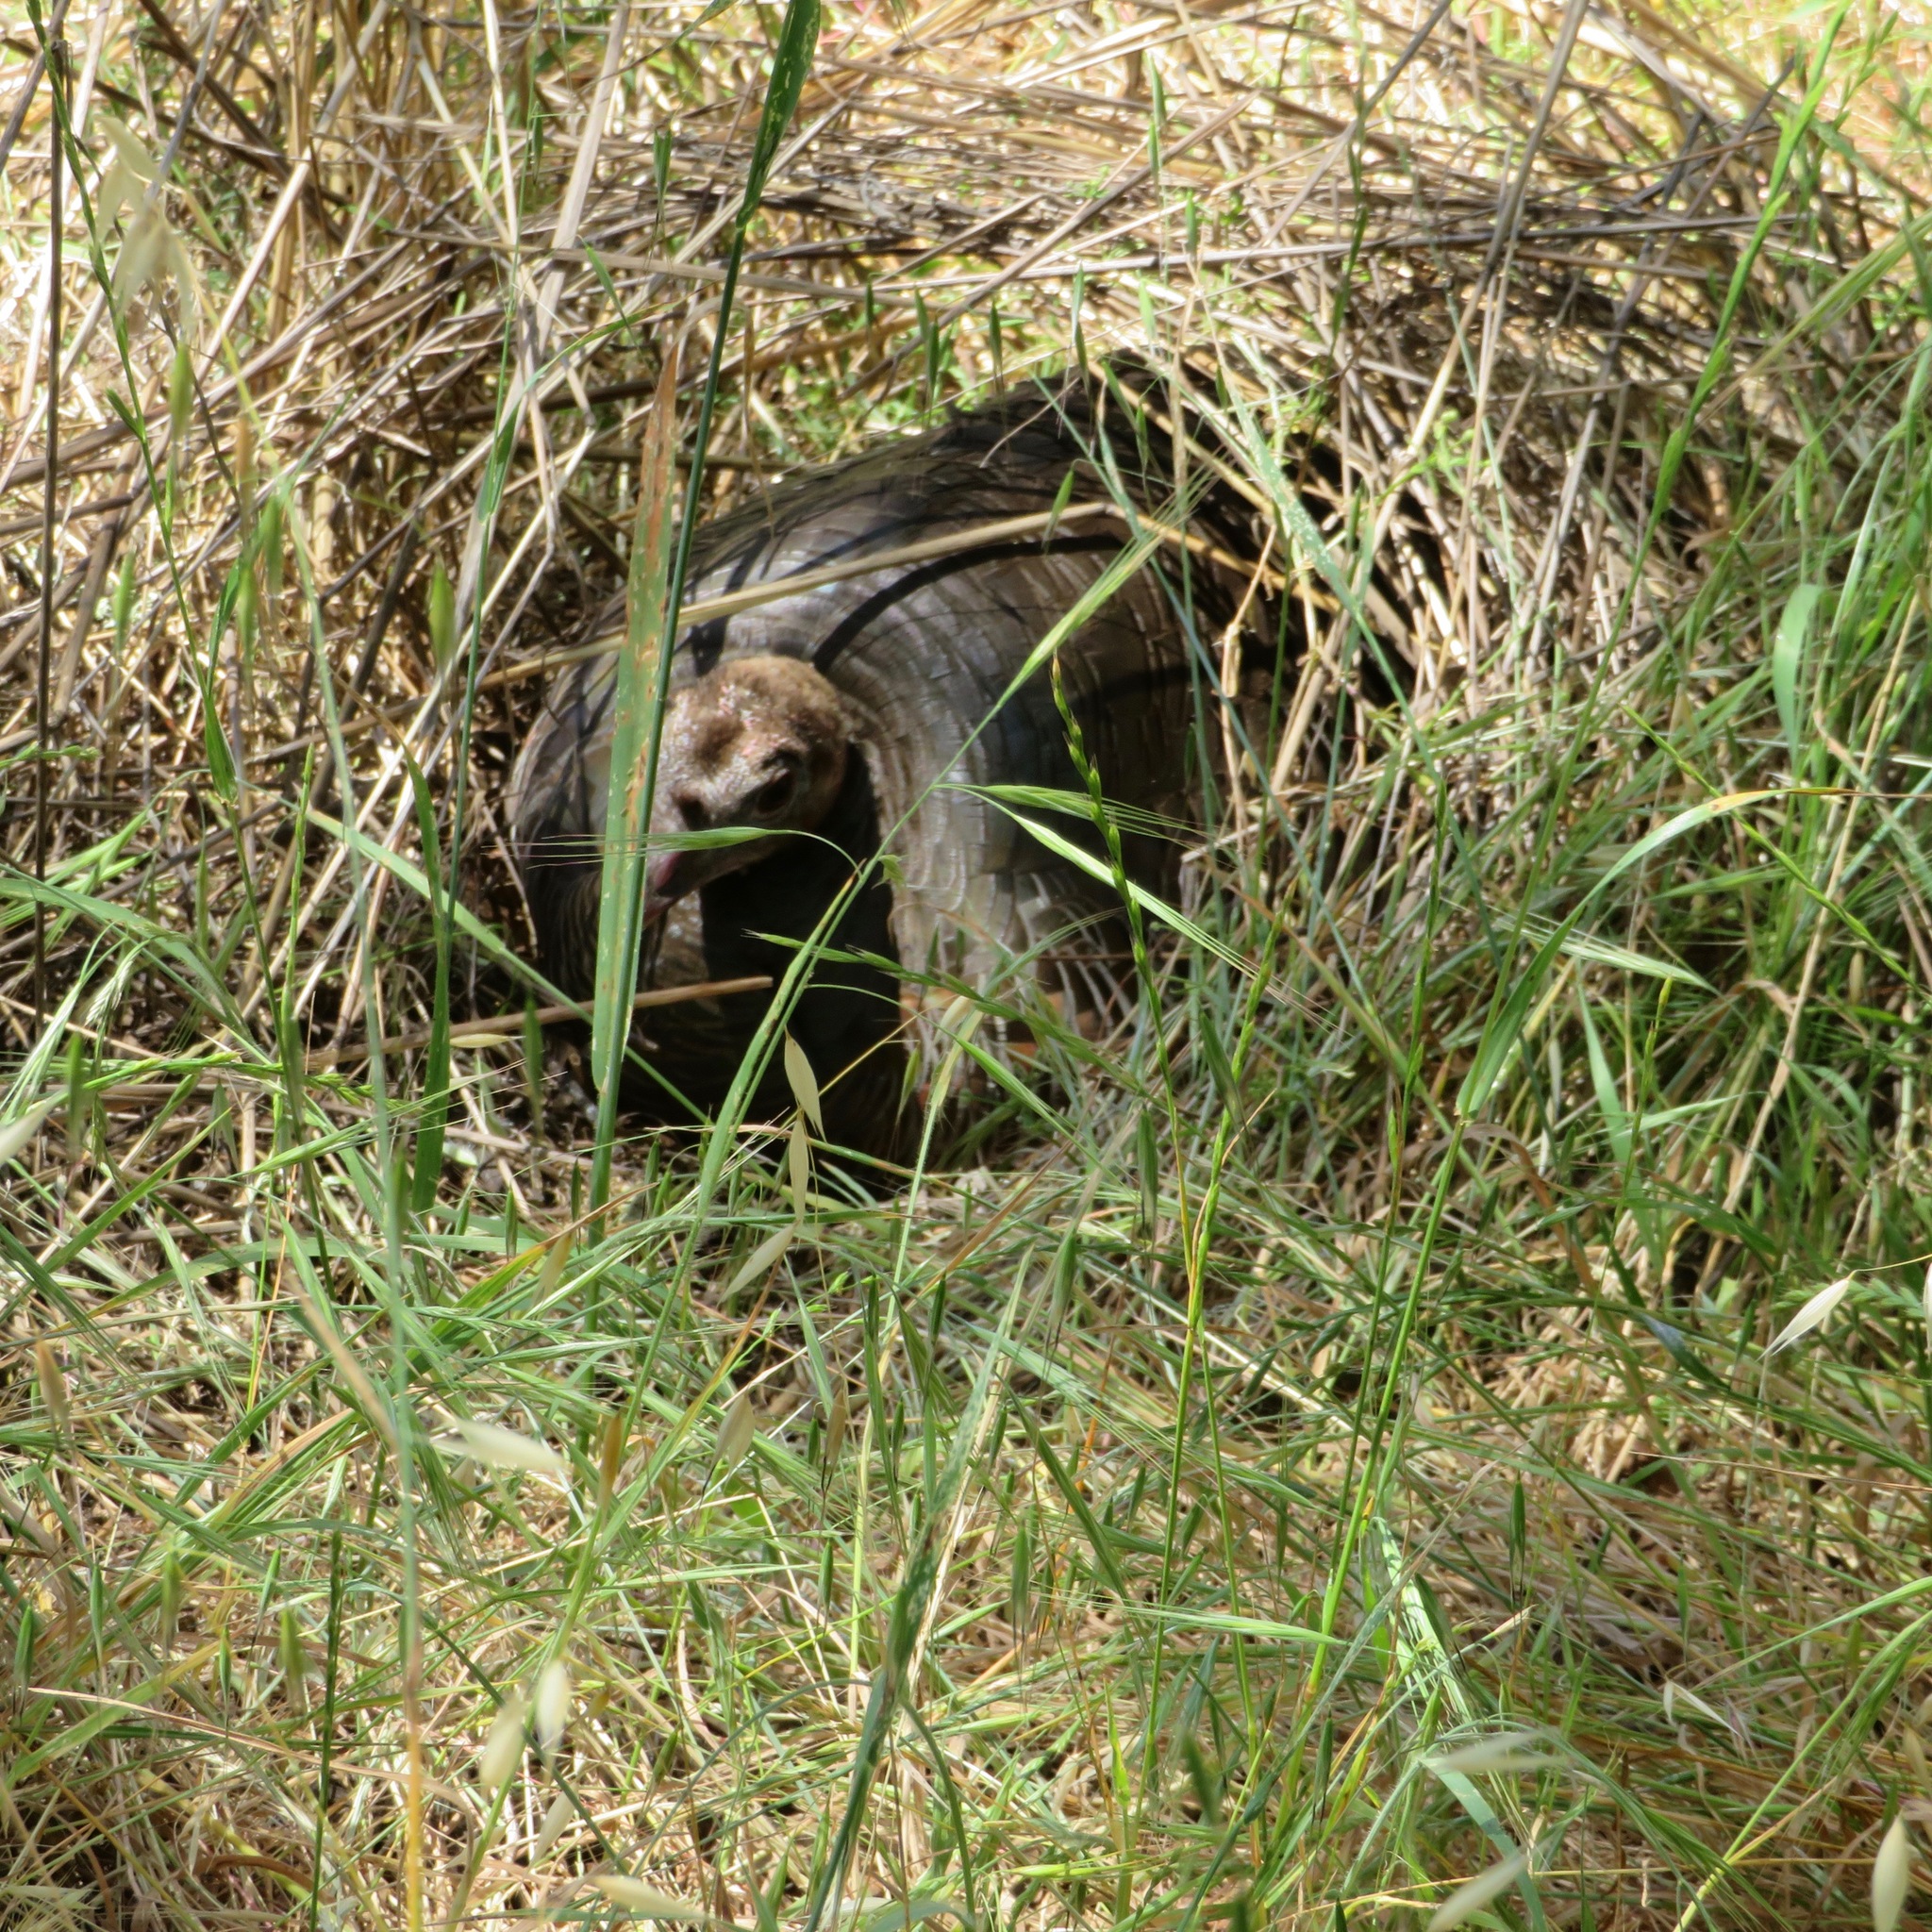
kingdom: Animalia
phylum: Chordata
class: Aves
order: Galliformes
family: Phasianidae
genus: Meleagris
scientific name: Meleagris gallopavo
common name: Wild turkey
